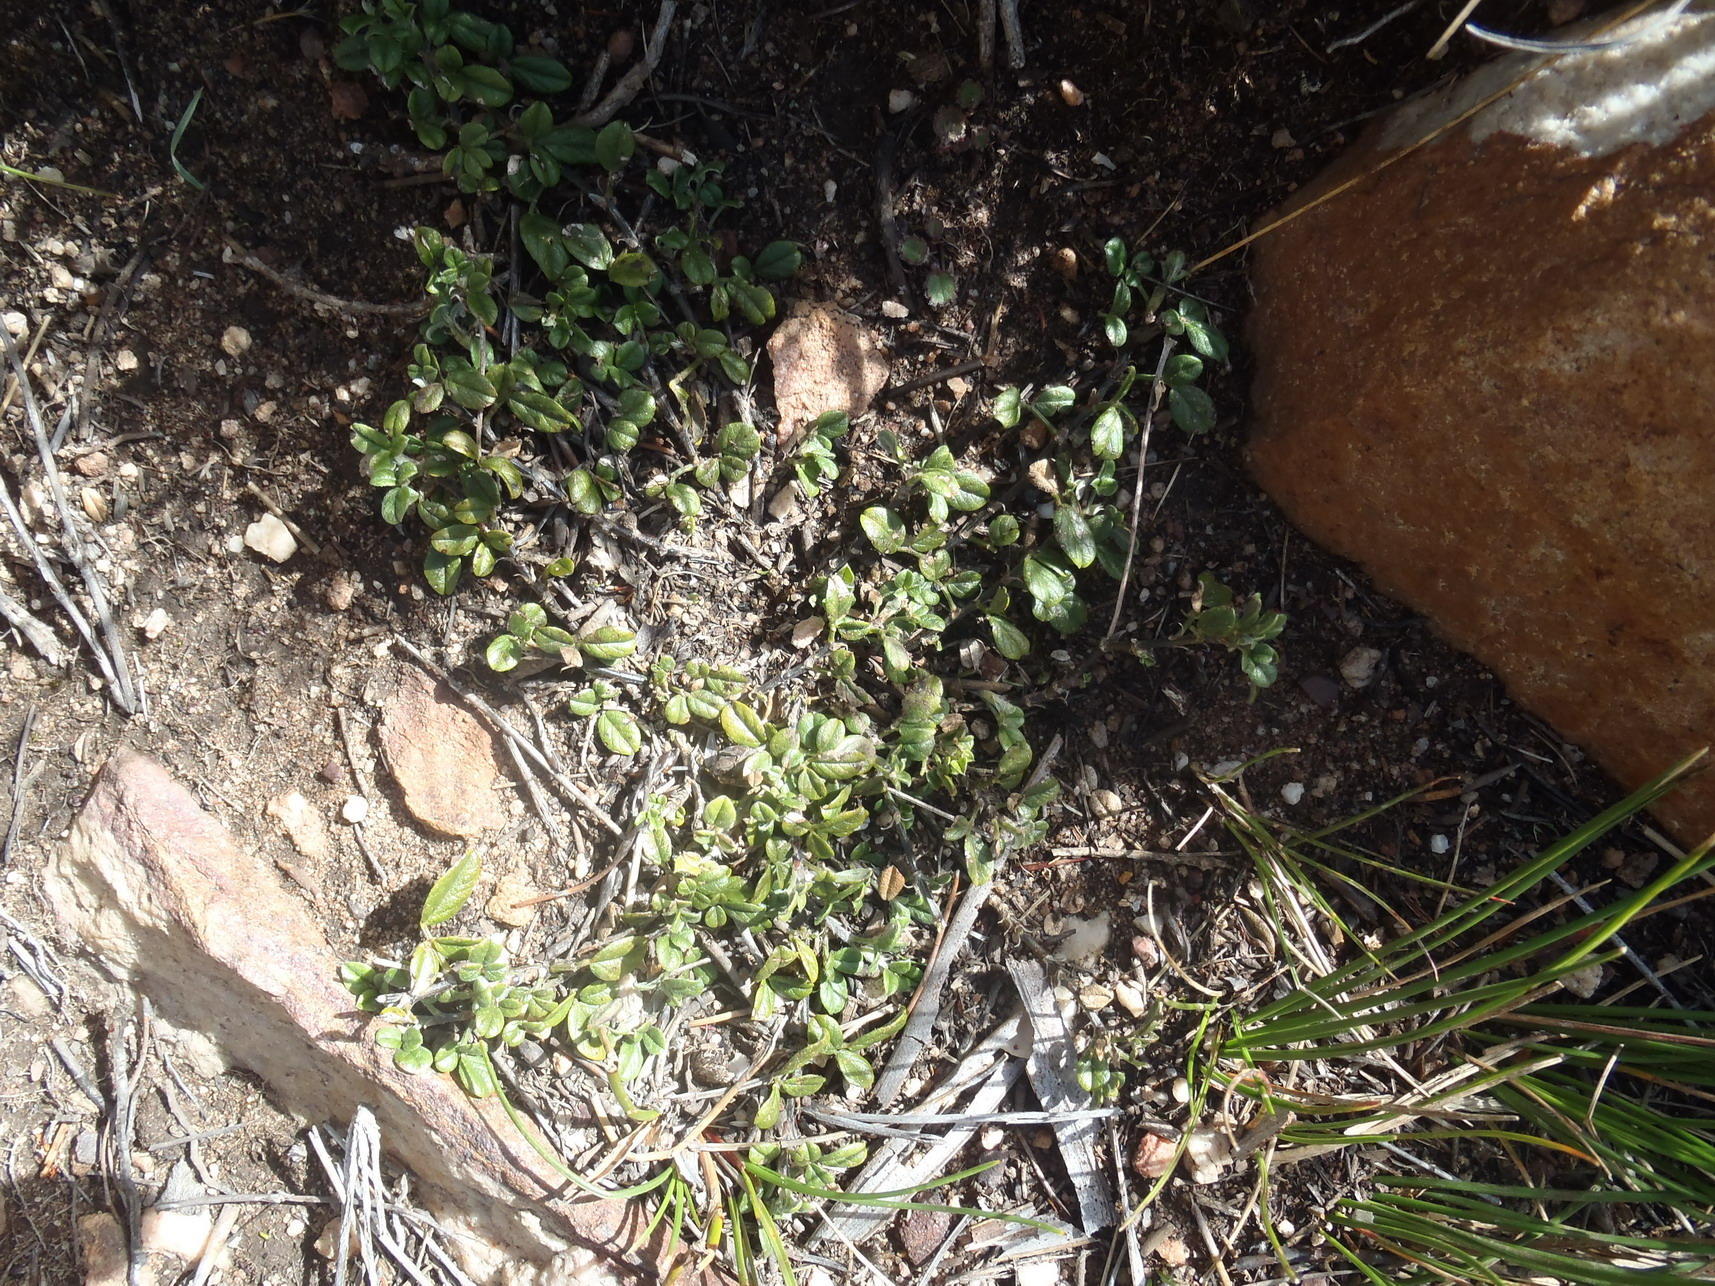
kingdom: Plantae
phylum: Tracheophyta
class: Magnoliopsida
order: Fabales
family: Fabaceae
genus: Psoralea
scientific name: Psoralea swartbergensis
